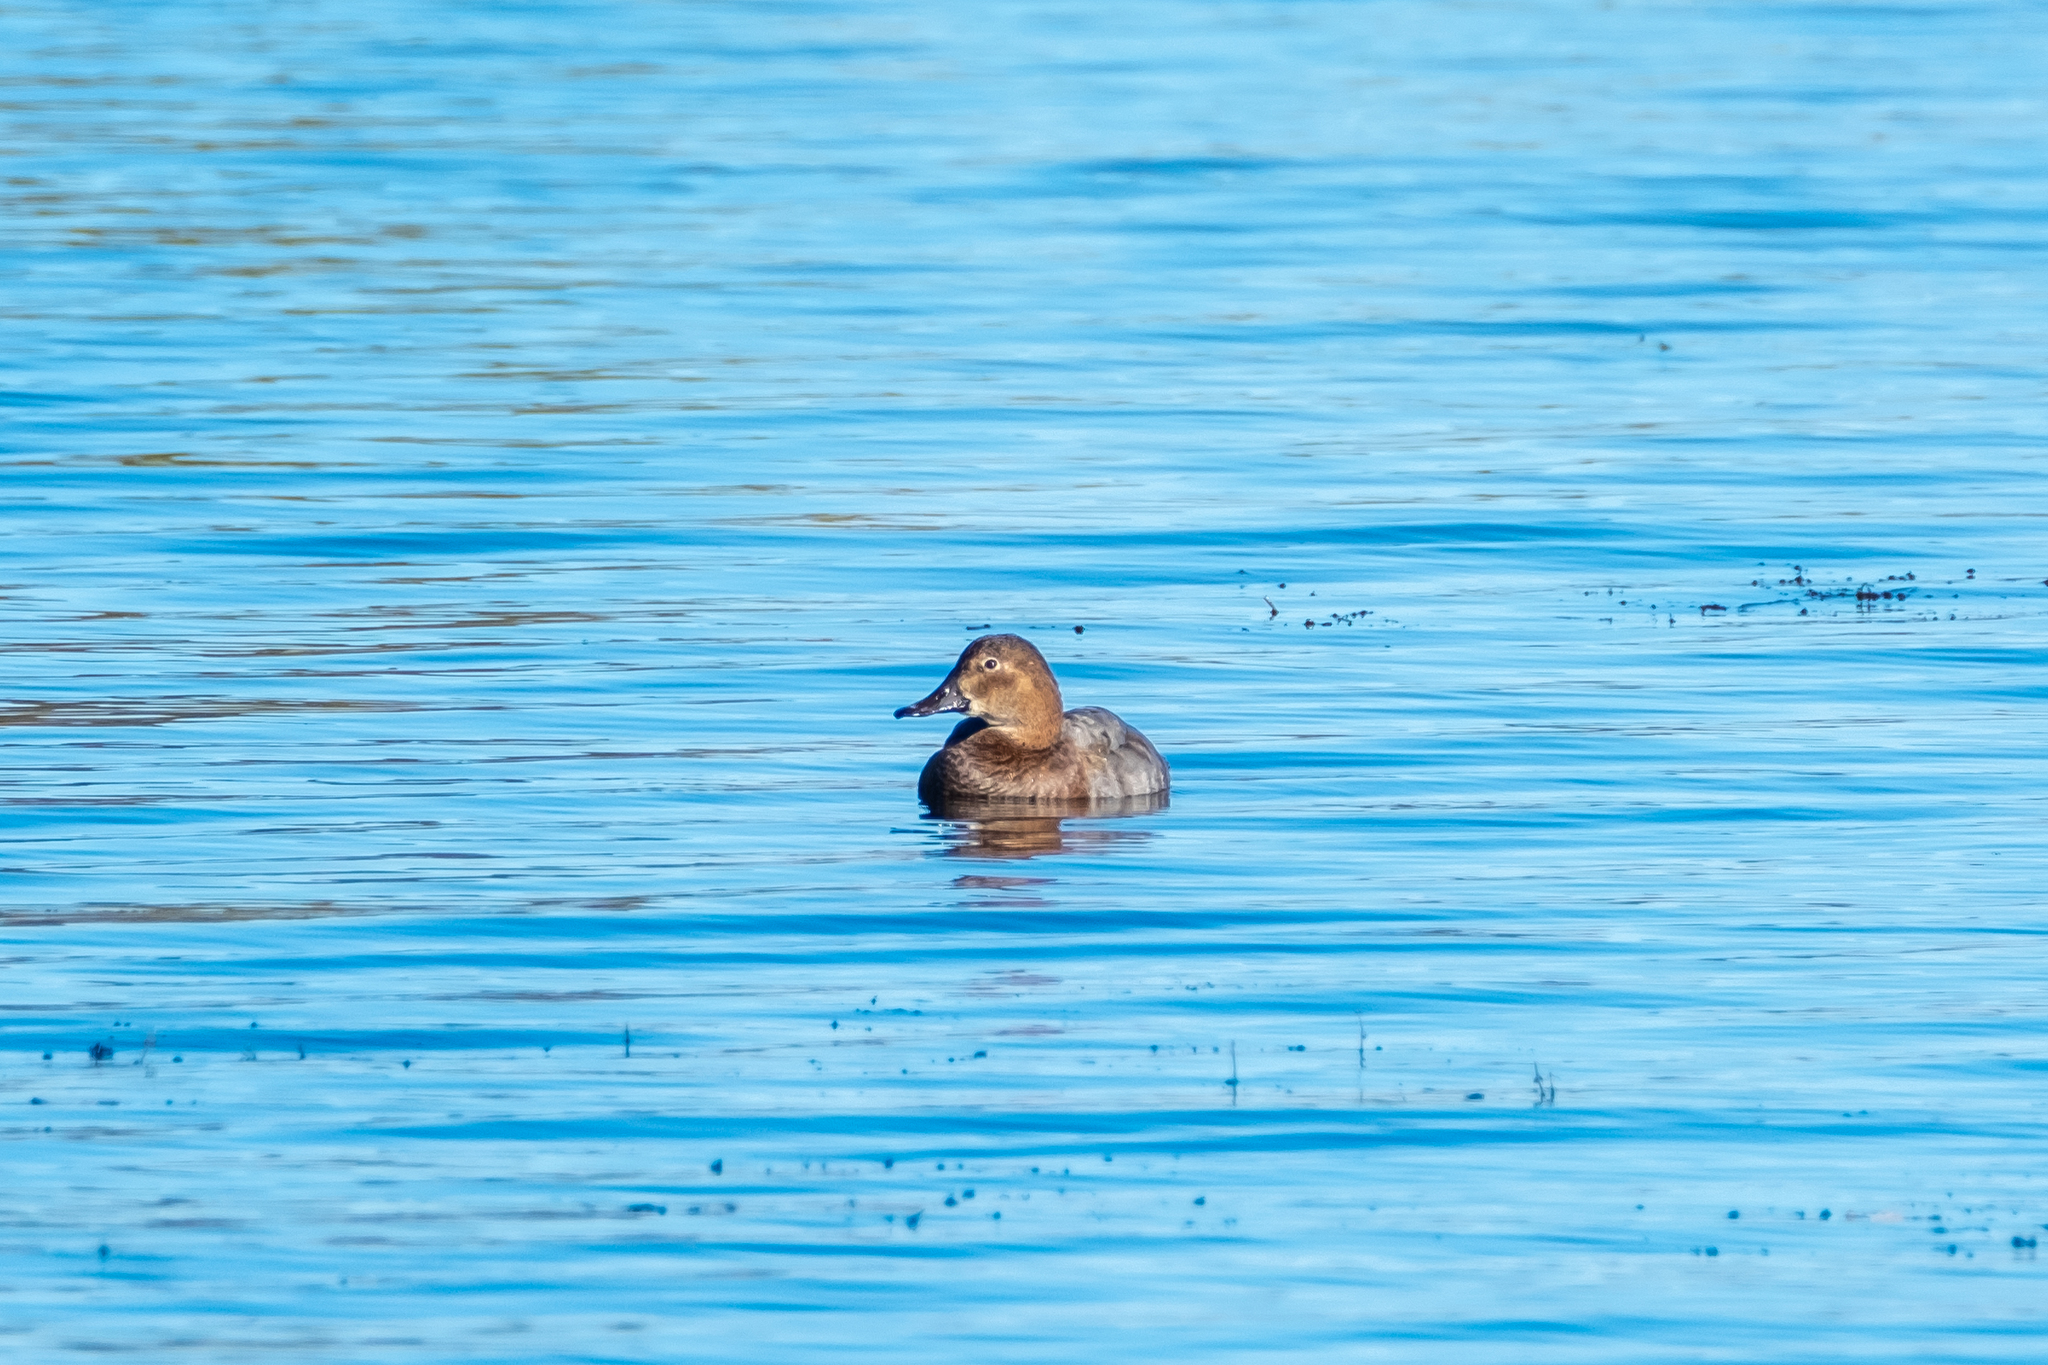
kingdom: Animalia
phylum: Chordata
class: Aves
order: Anseriformes
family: Anatidae
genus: Aythya
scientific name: Aythya ferina
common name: Common pochard
